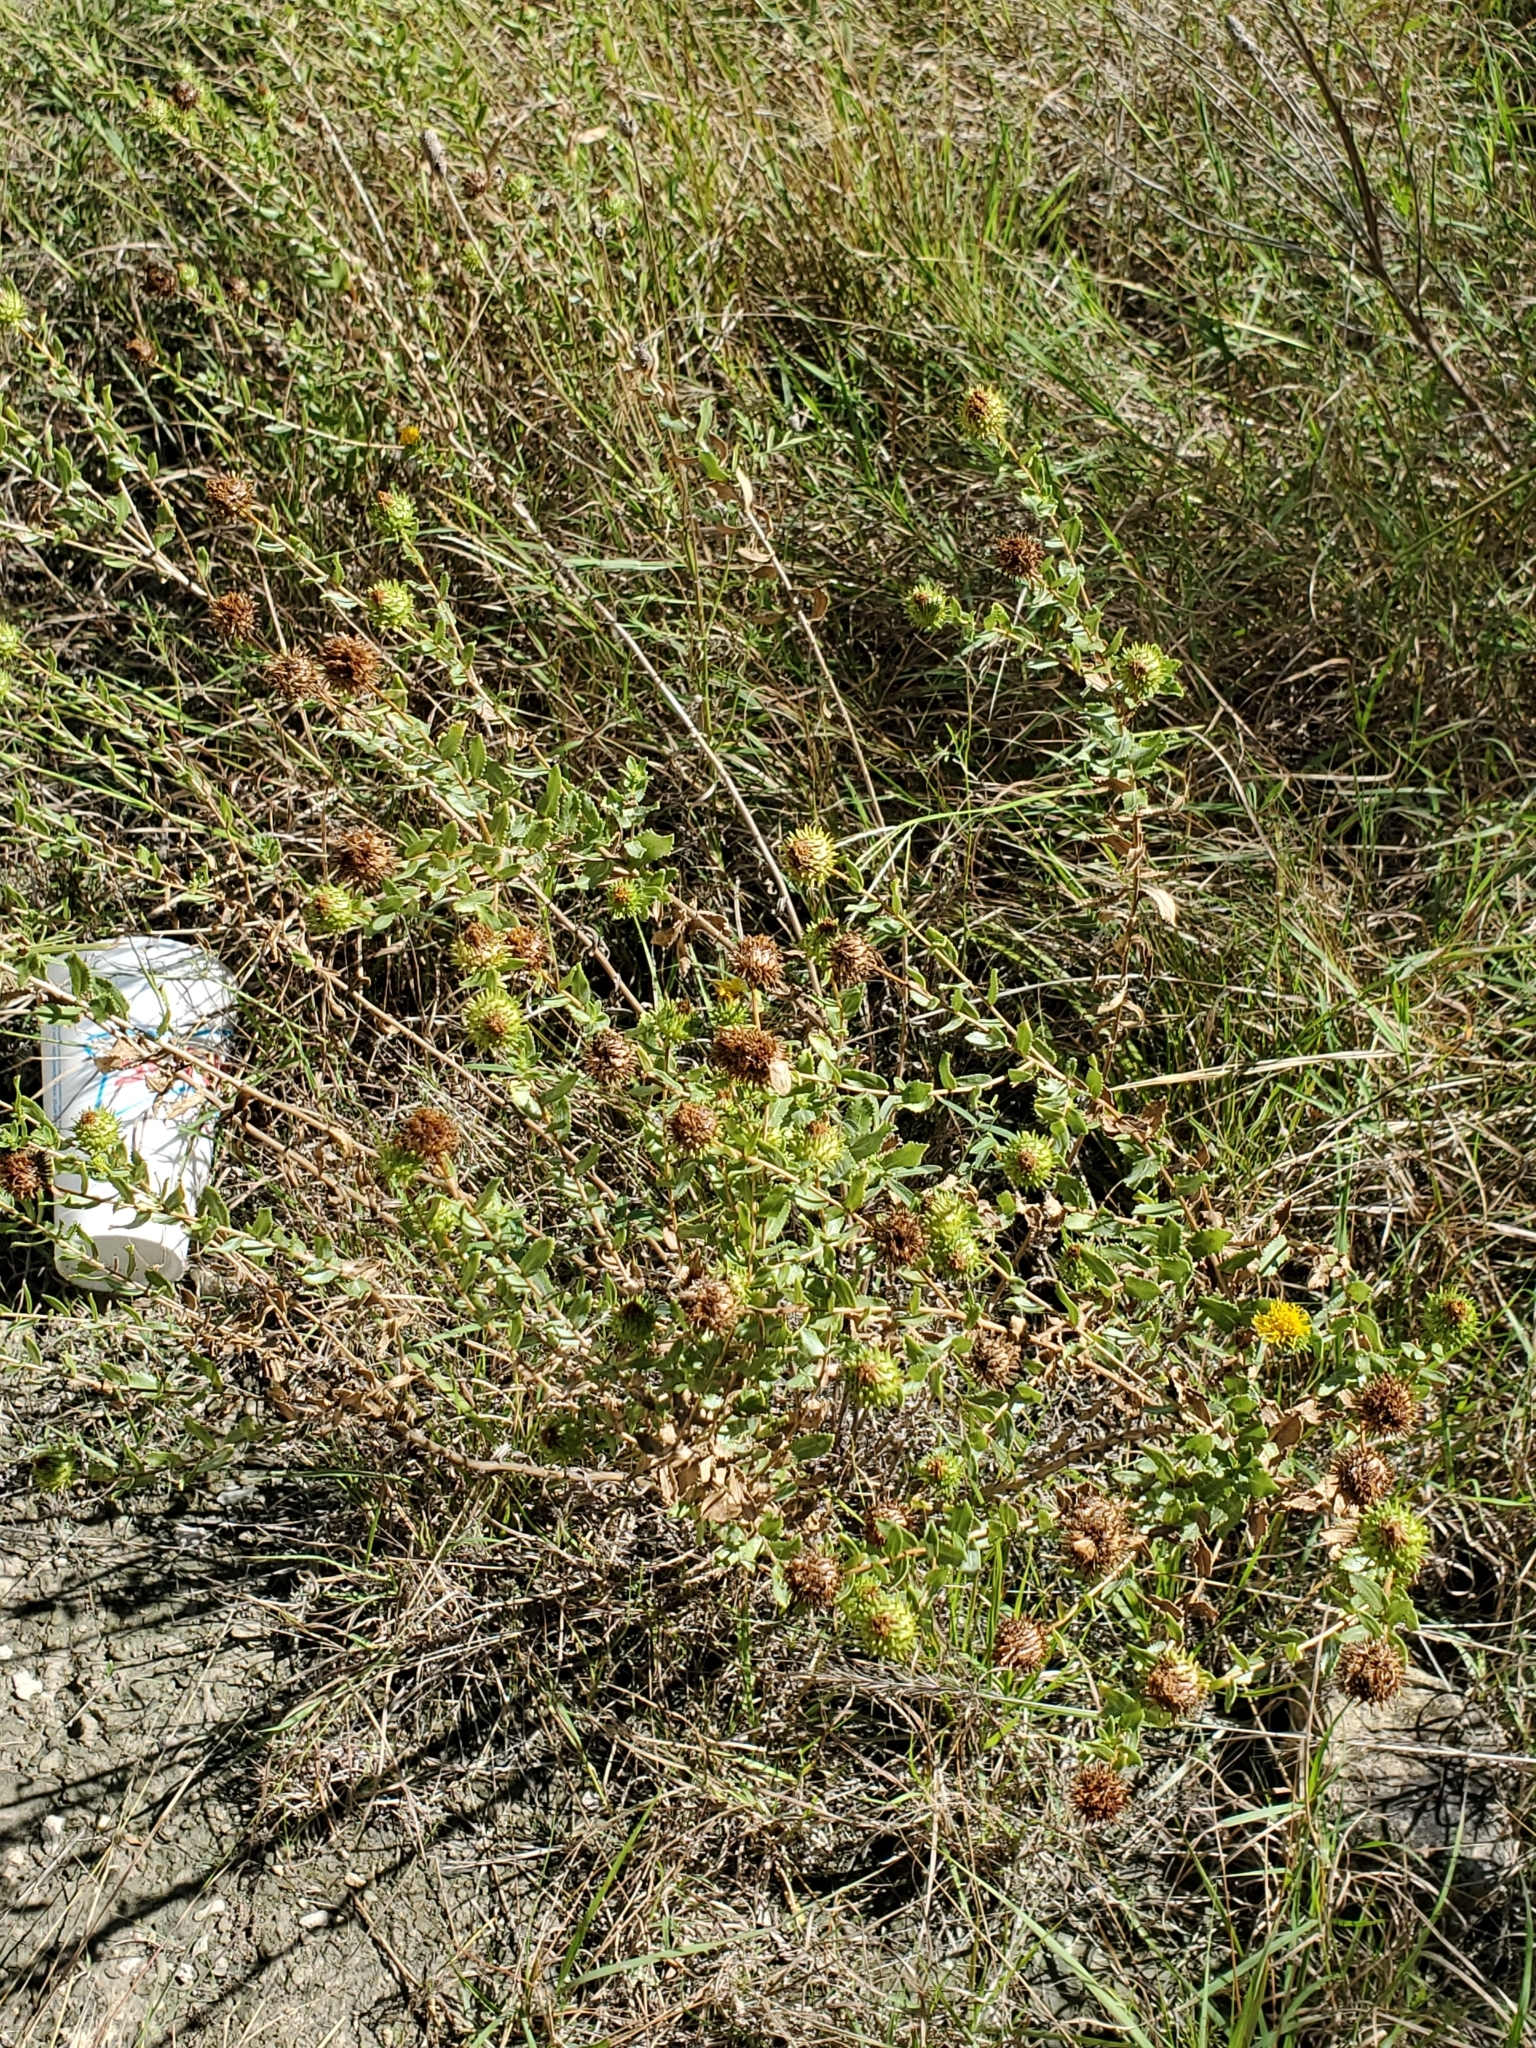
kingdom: Plantae
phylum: Tracheophyta
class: Magnoliopsida
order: Asterales
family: Asteraceae
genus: Grindelia
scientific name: Grindelia nuda
